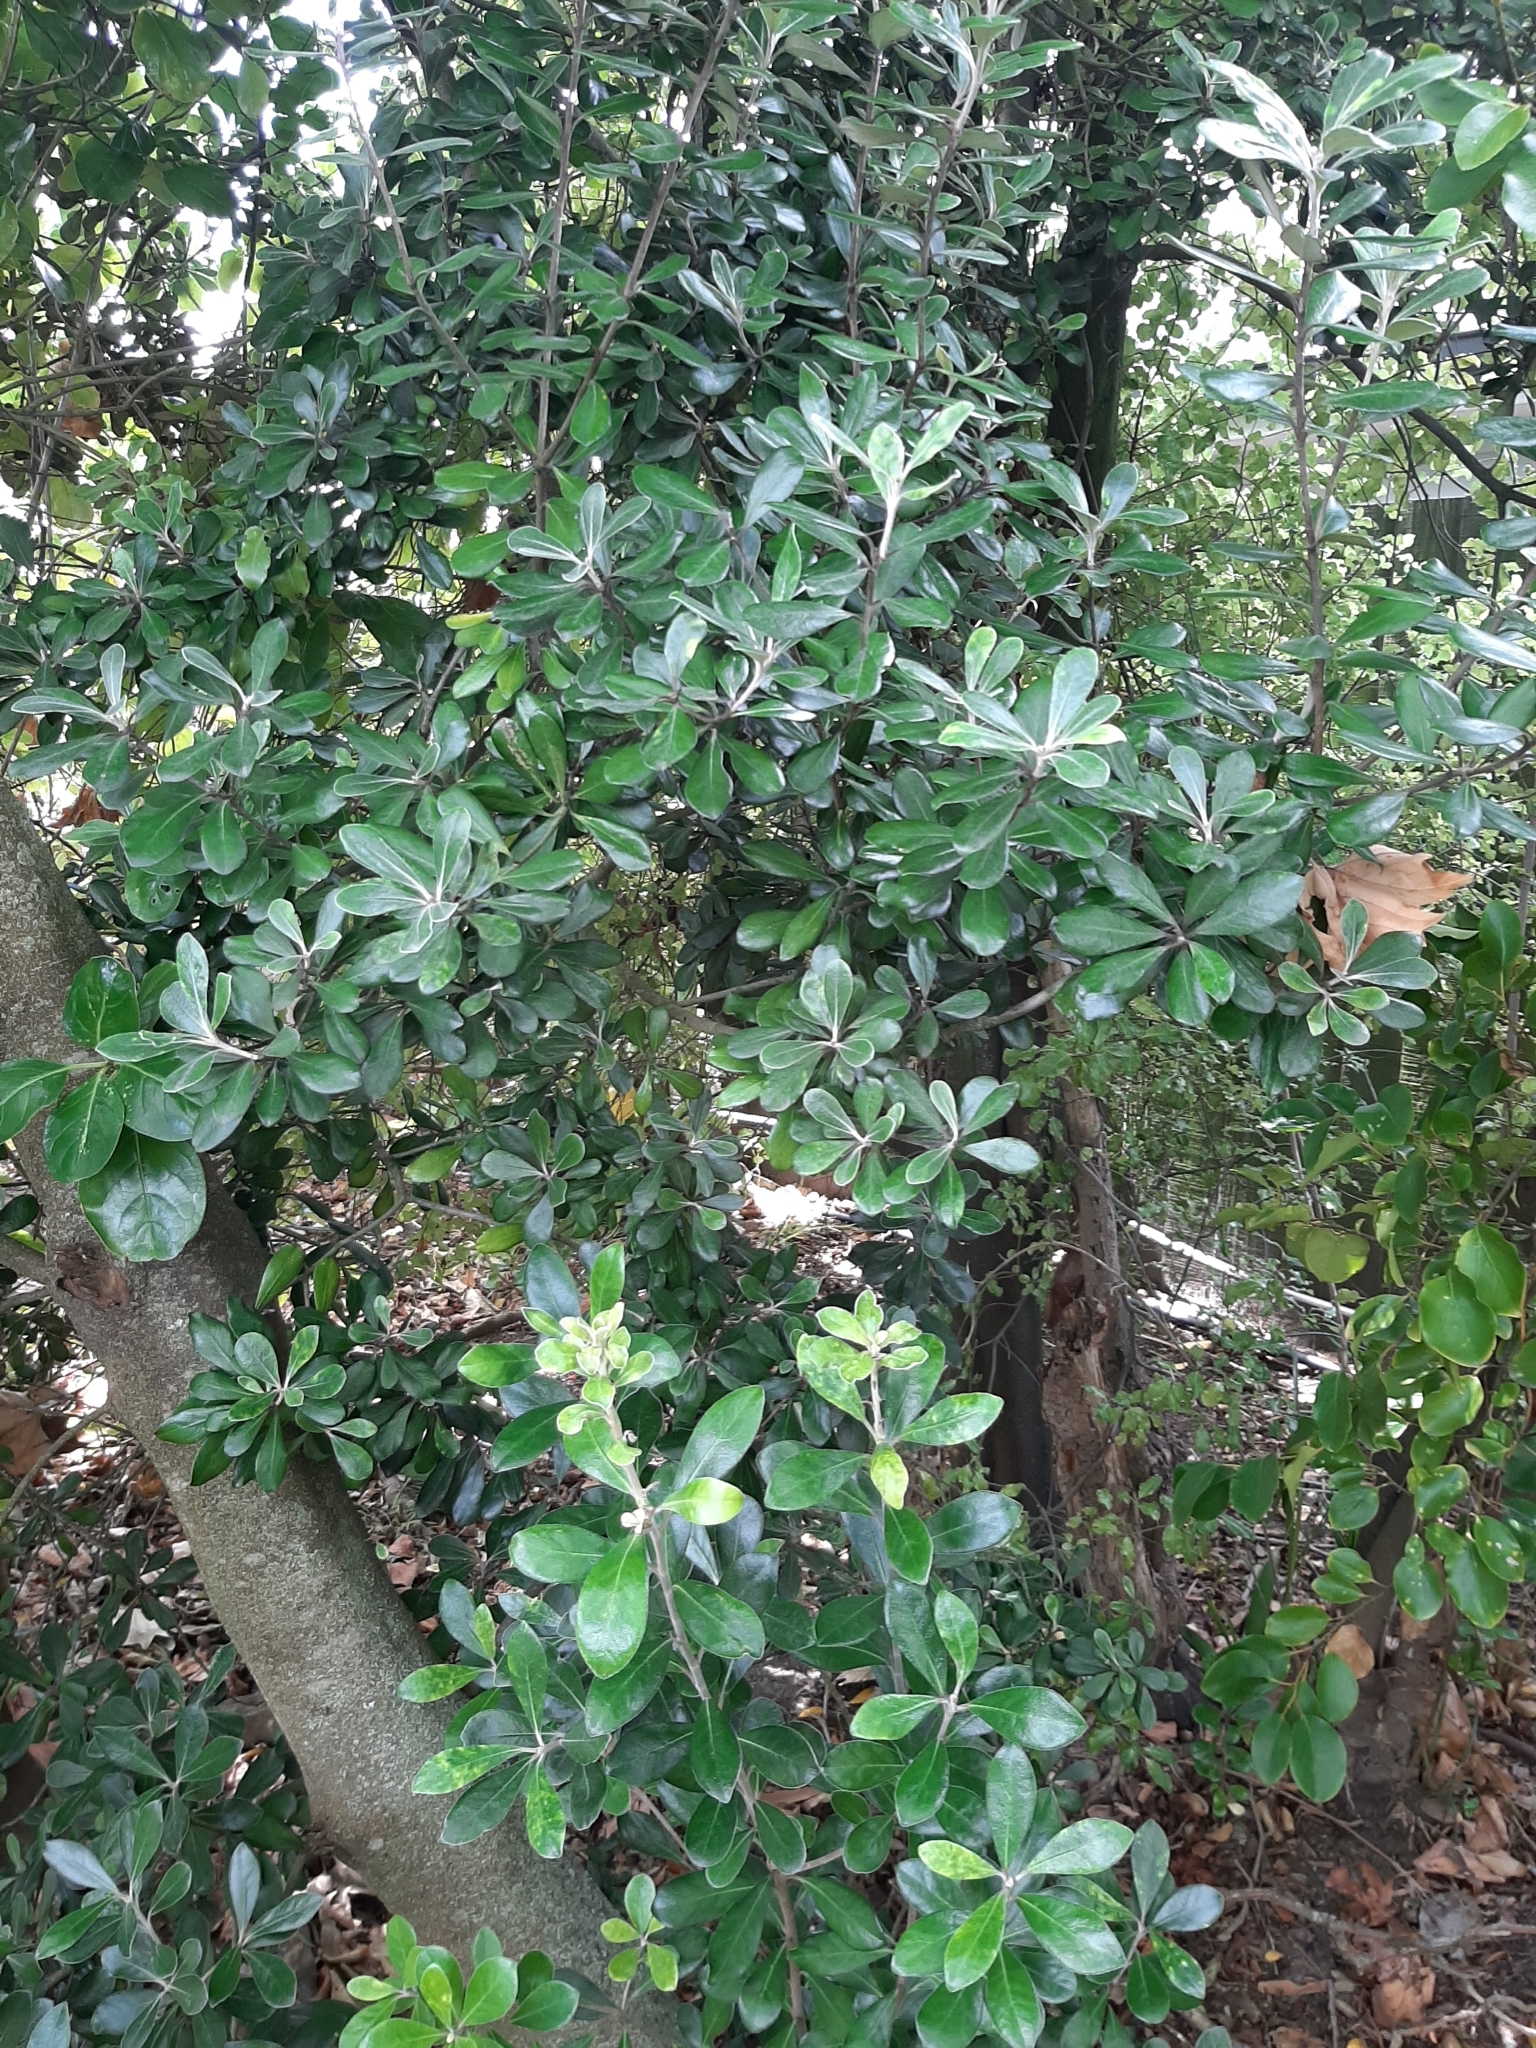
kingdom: Plantae
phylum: Tracheophyta
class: Magnoliopsida
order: Apiales
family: Pittosporaceae
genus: Pittosporum
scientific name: Pittosporum crassifolium
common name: Karo
